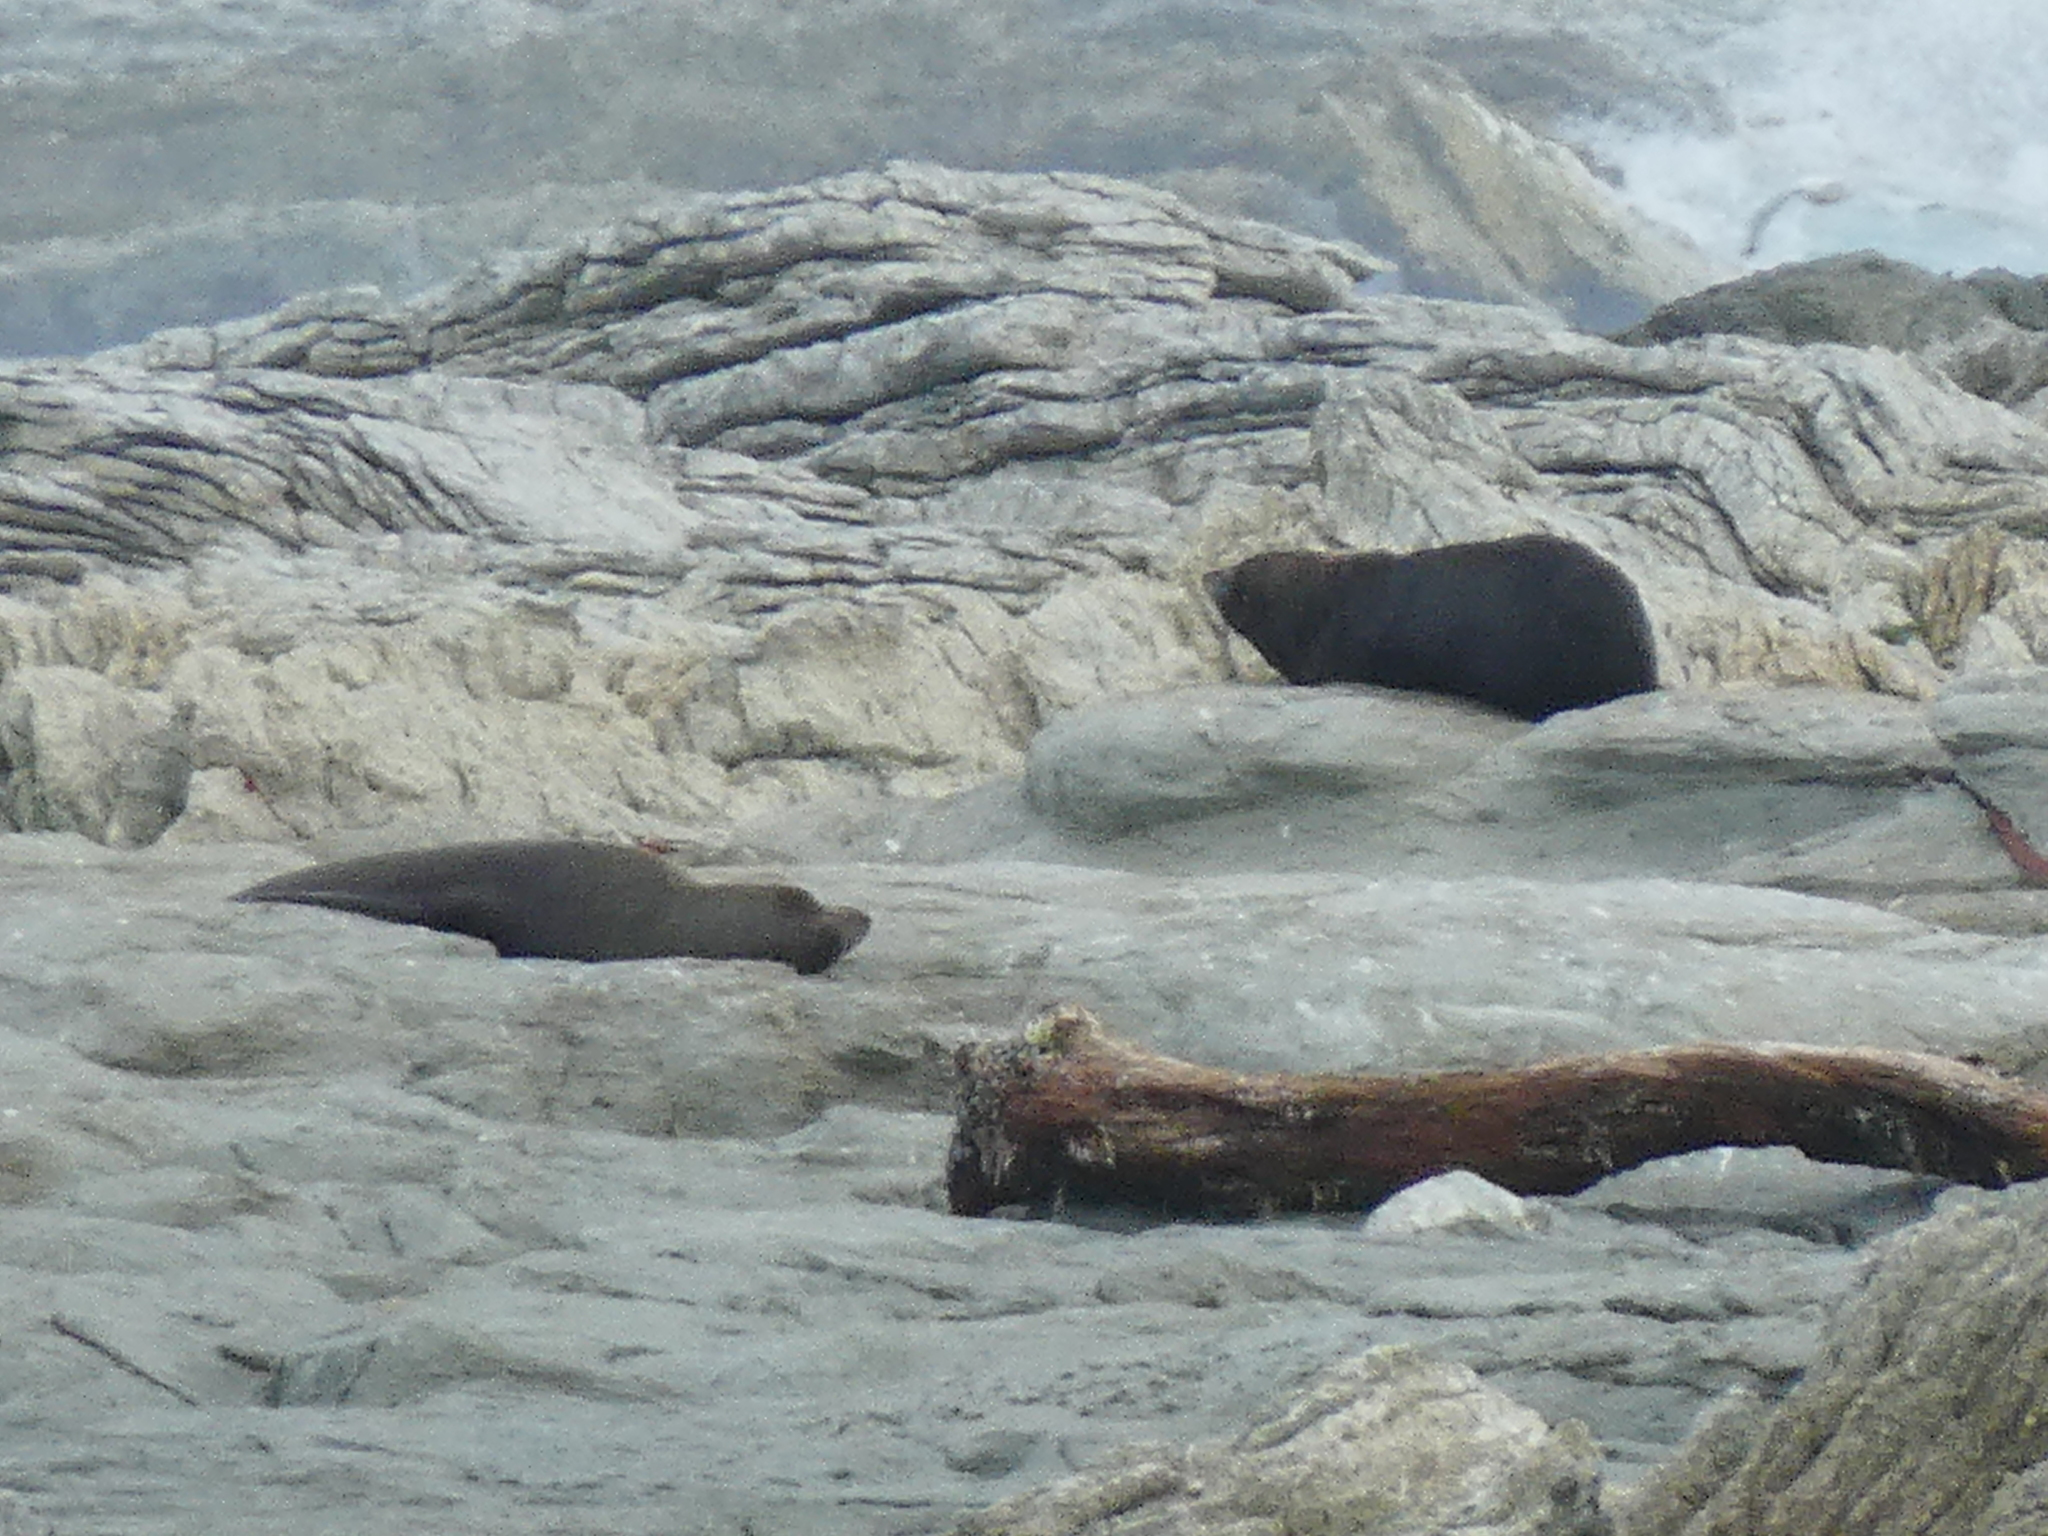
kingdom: Animalia
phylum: Chordata
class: Mammalia
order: Carnivora
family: Otariidae
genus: Arctocephalus
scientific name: Arctocephalus forsteri
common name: New zealand fur seal
